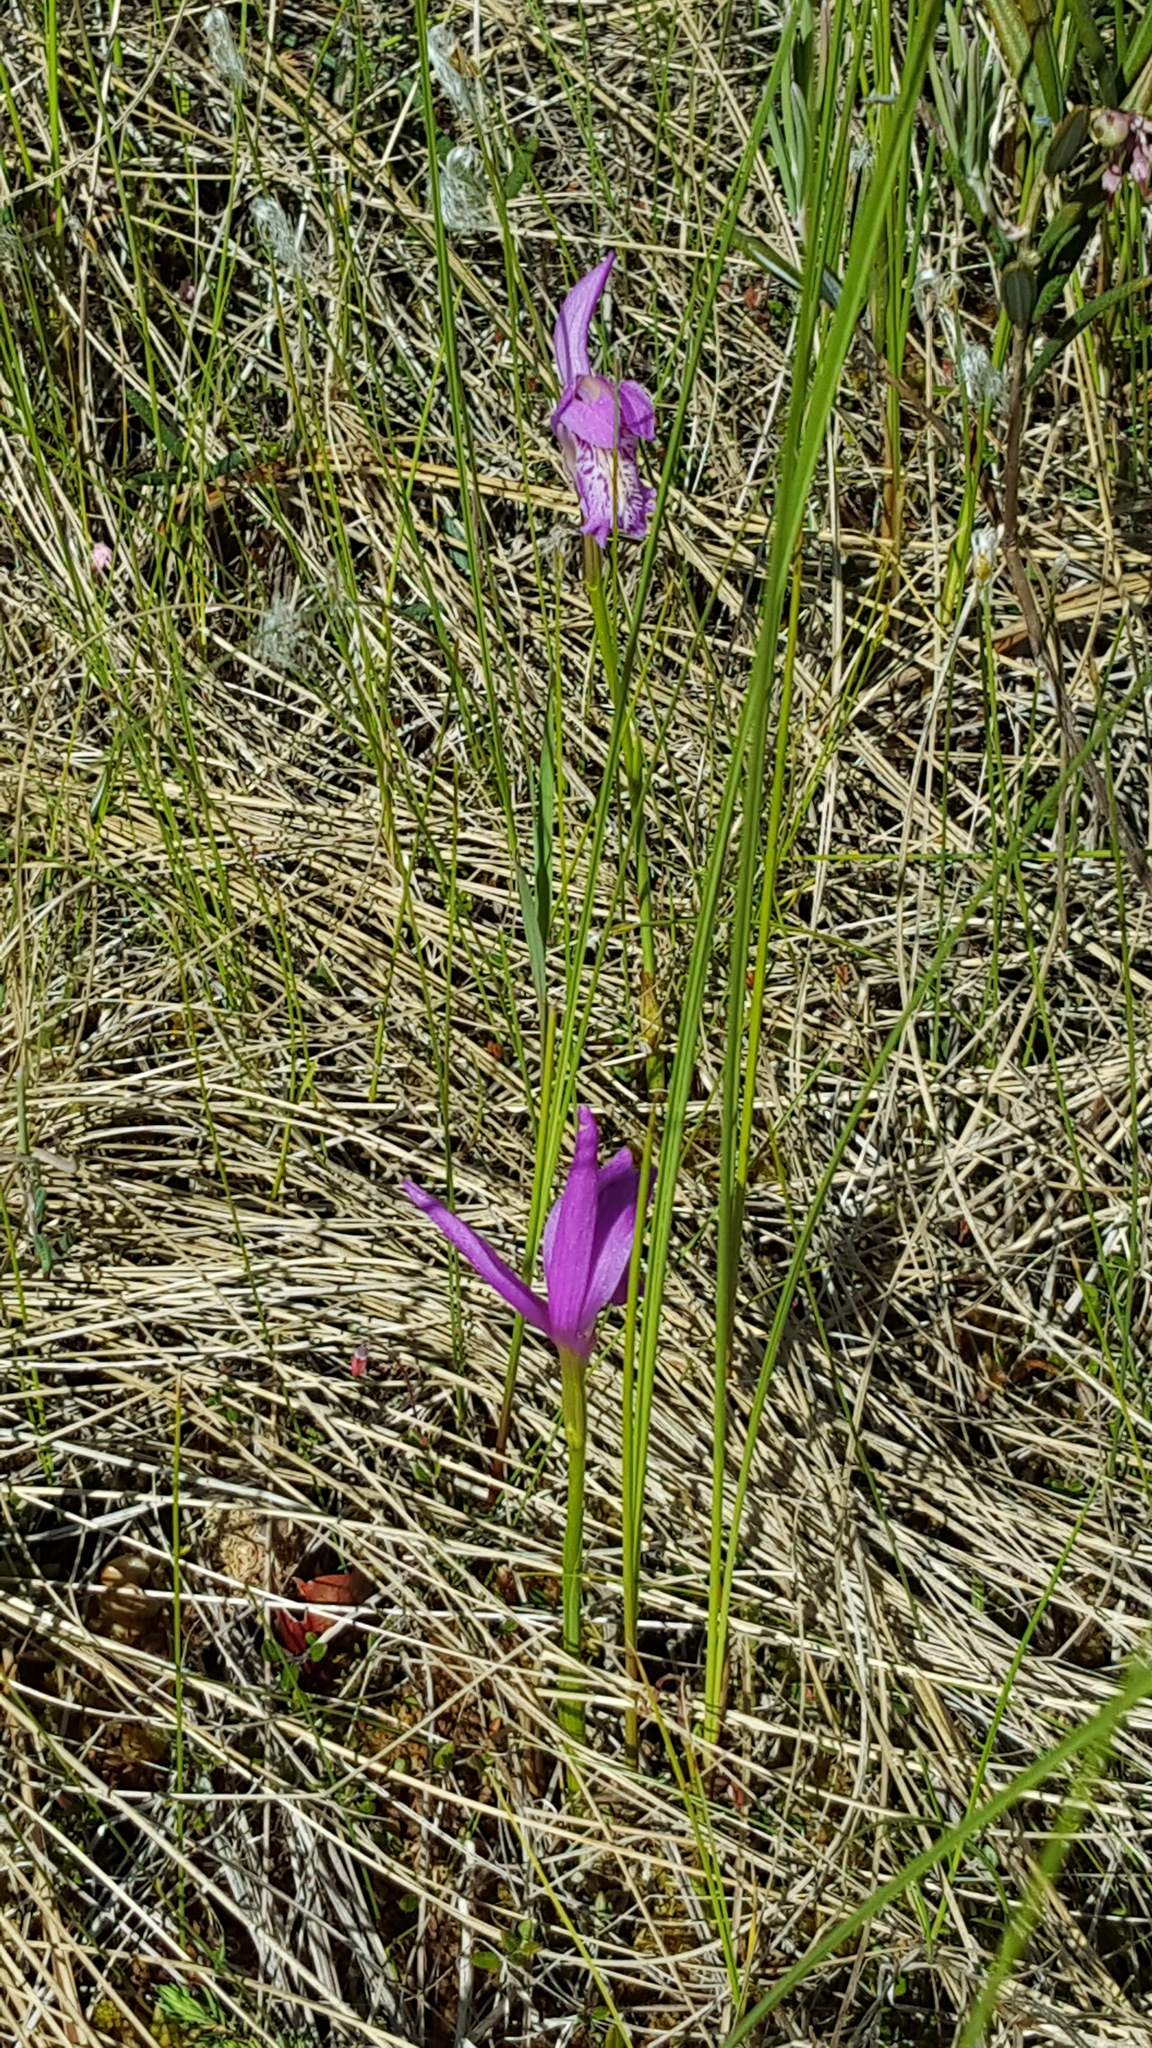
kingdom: Plantae
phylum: Tracheophyta
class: Liliopsida
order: Asparagales
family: Orchidaceae
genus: Arethusa
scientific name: Arethusa bulbosa
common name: Arethusa
